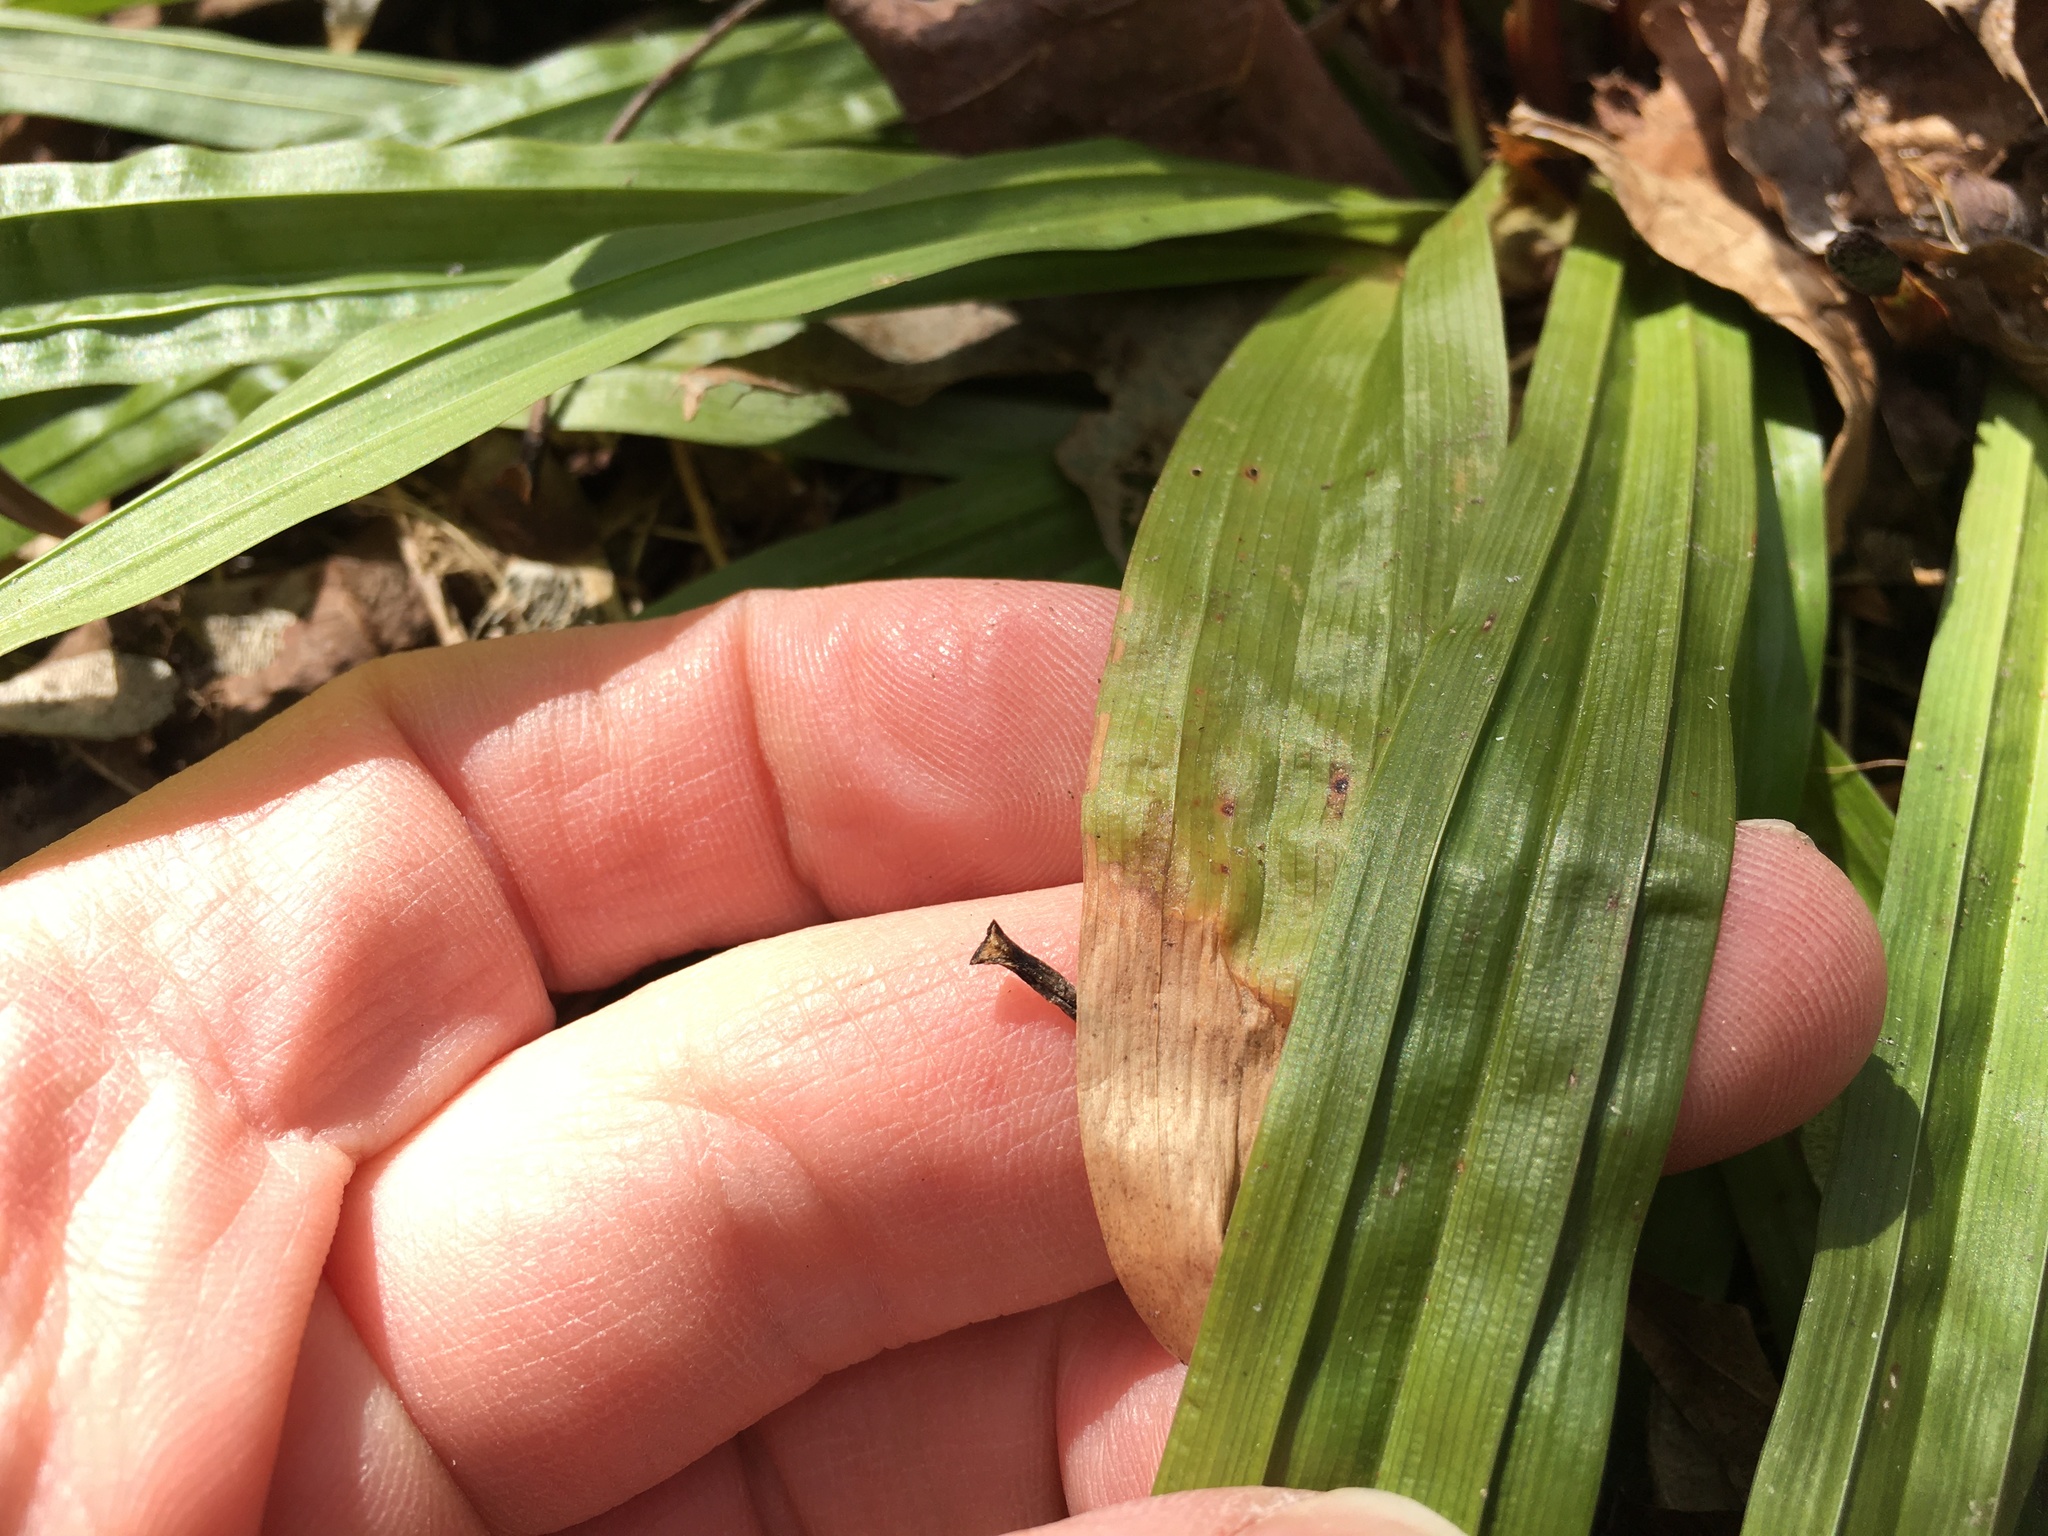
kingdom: Plantae
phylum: Tracheophyta
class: Liliopsida
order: Poales
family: Cyperaceae
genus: Carex
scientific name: Carex plantaginea
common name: Plantain-leaved sedge
